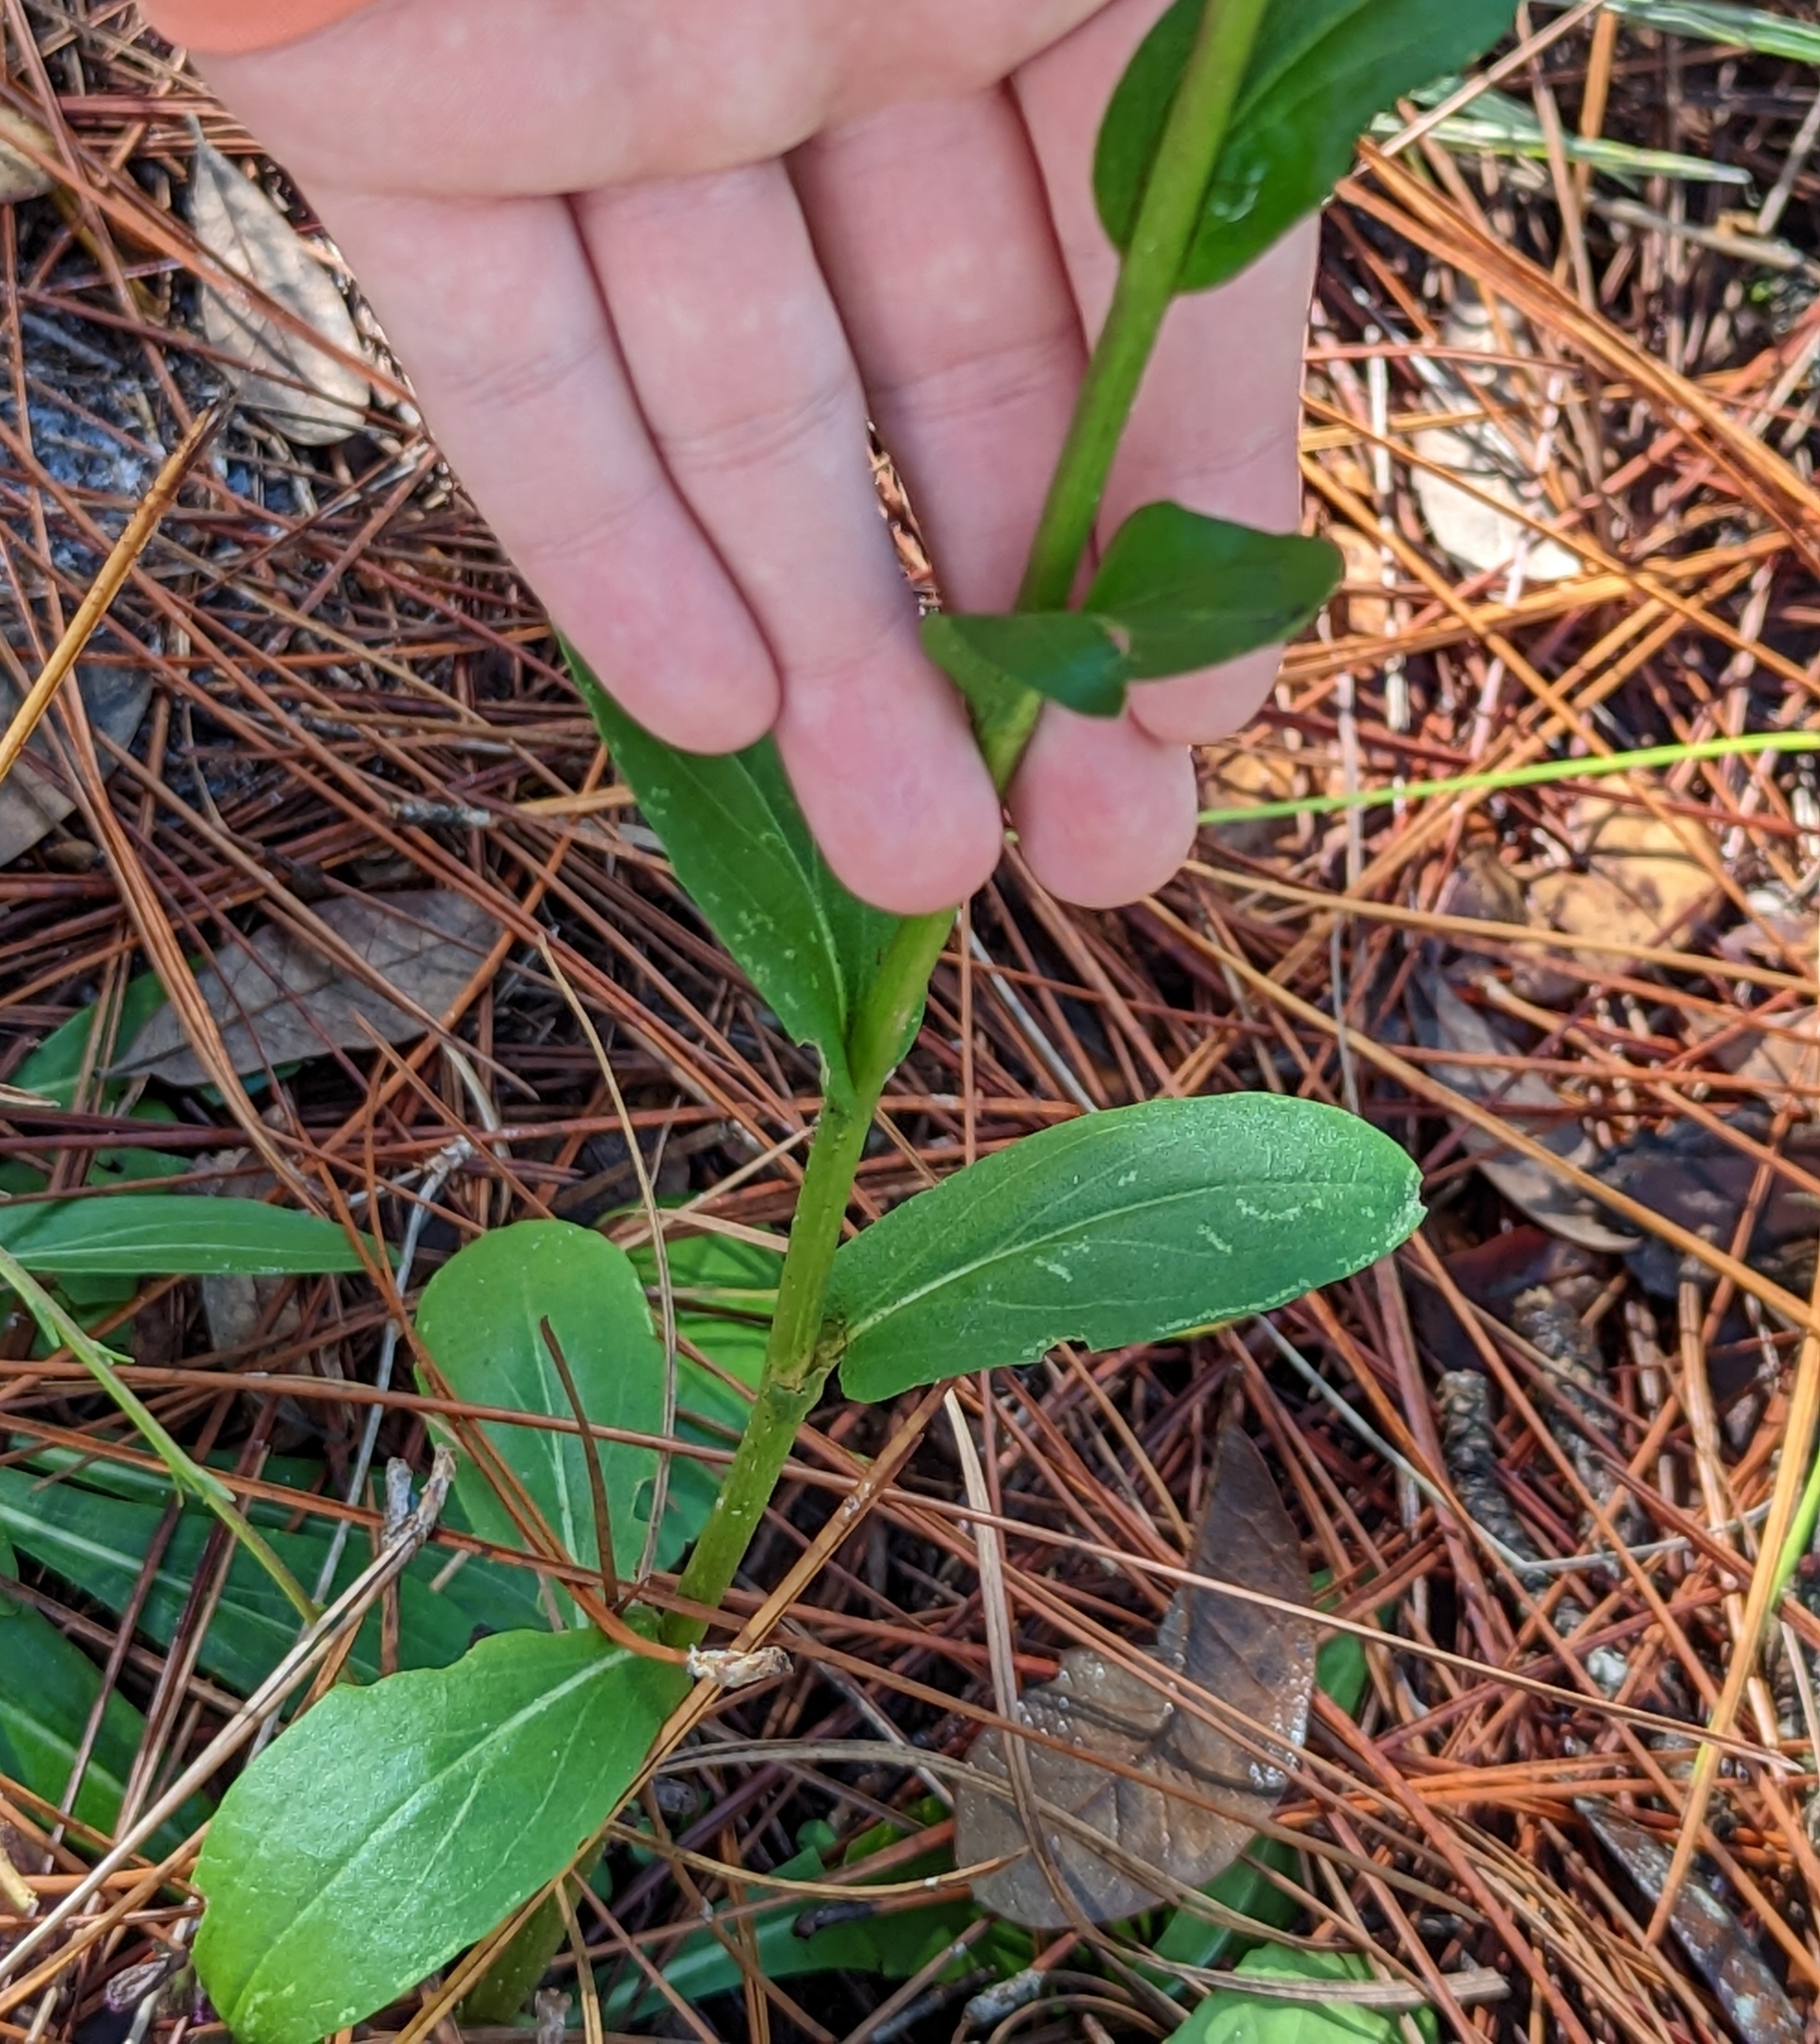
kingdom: Plantae
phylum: Tracheophyta
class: Magnoliopsida
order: Asterales
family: Asteraceae
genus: Carphephorus
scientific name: Carphephorus odoratissimus
